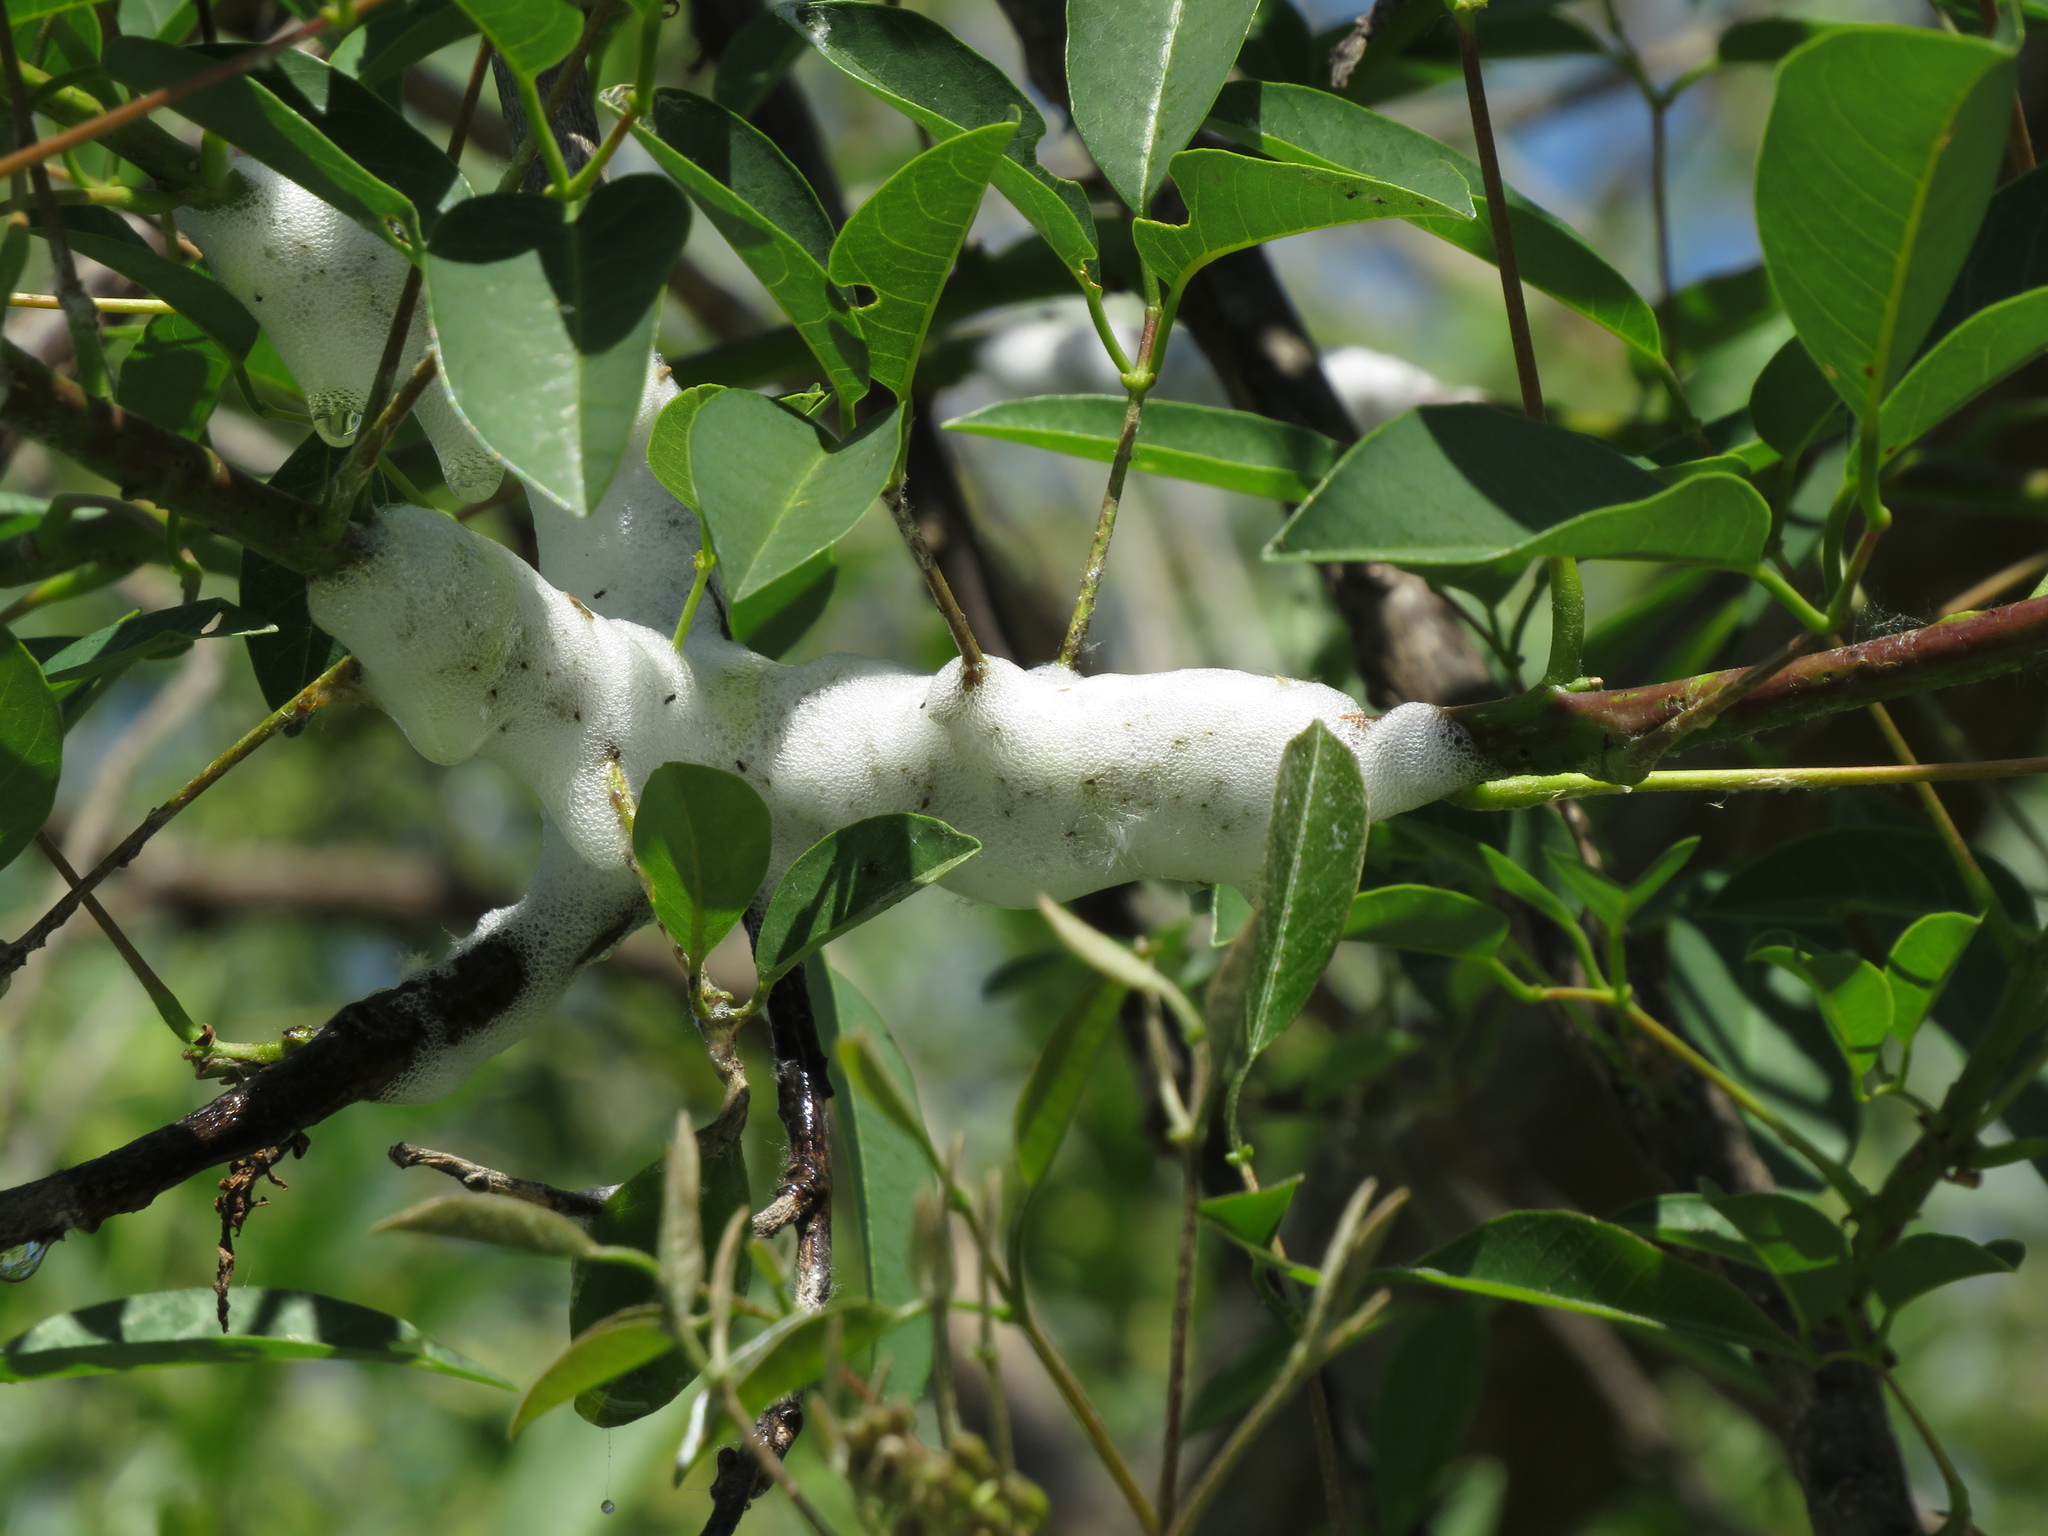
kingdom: Animalia
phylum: Arthropoda
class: Insecta
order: Hemiptera
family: Aphrophoridae
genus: Cephisus
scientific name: Cephisus siccifolius
